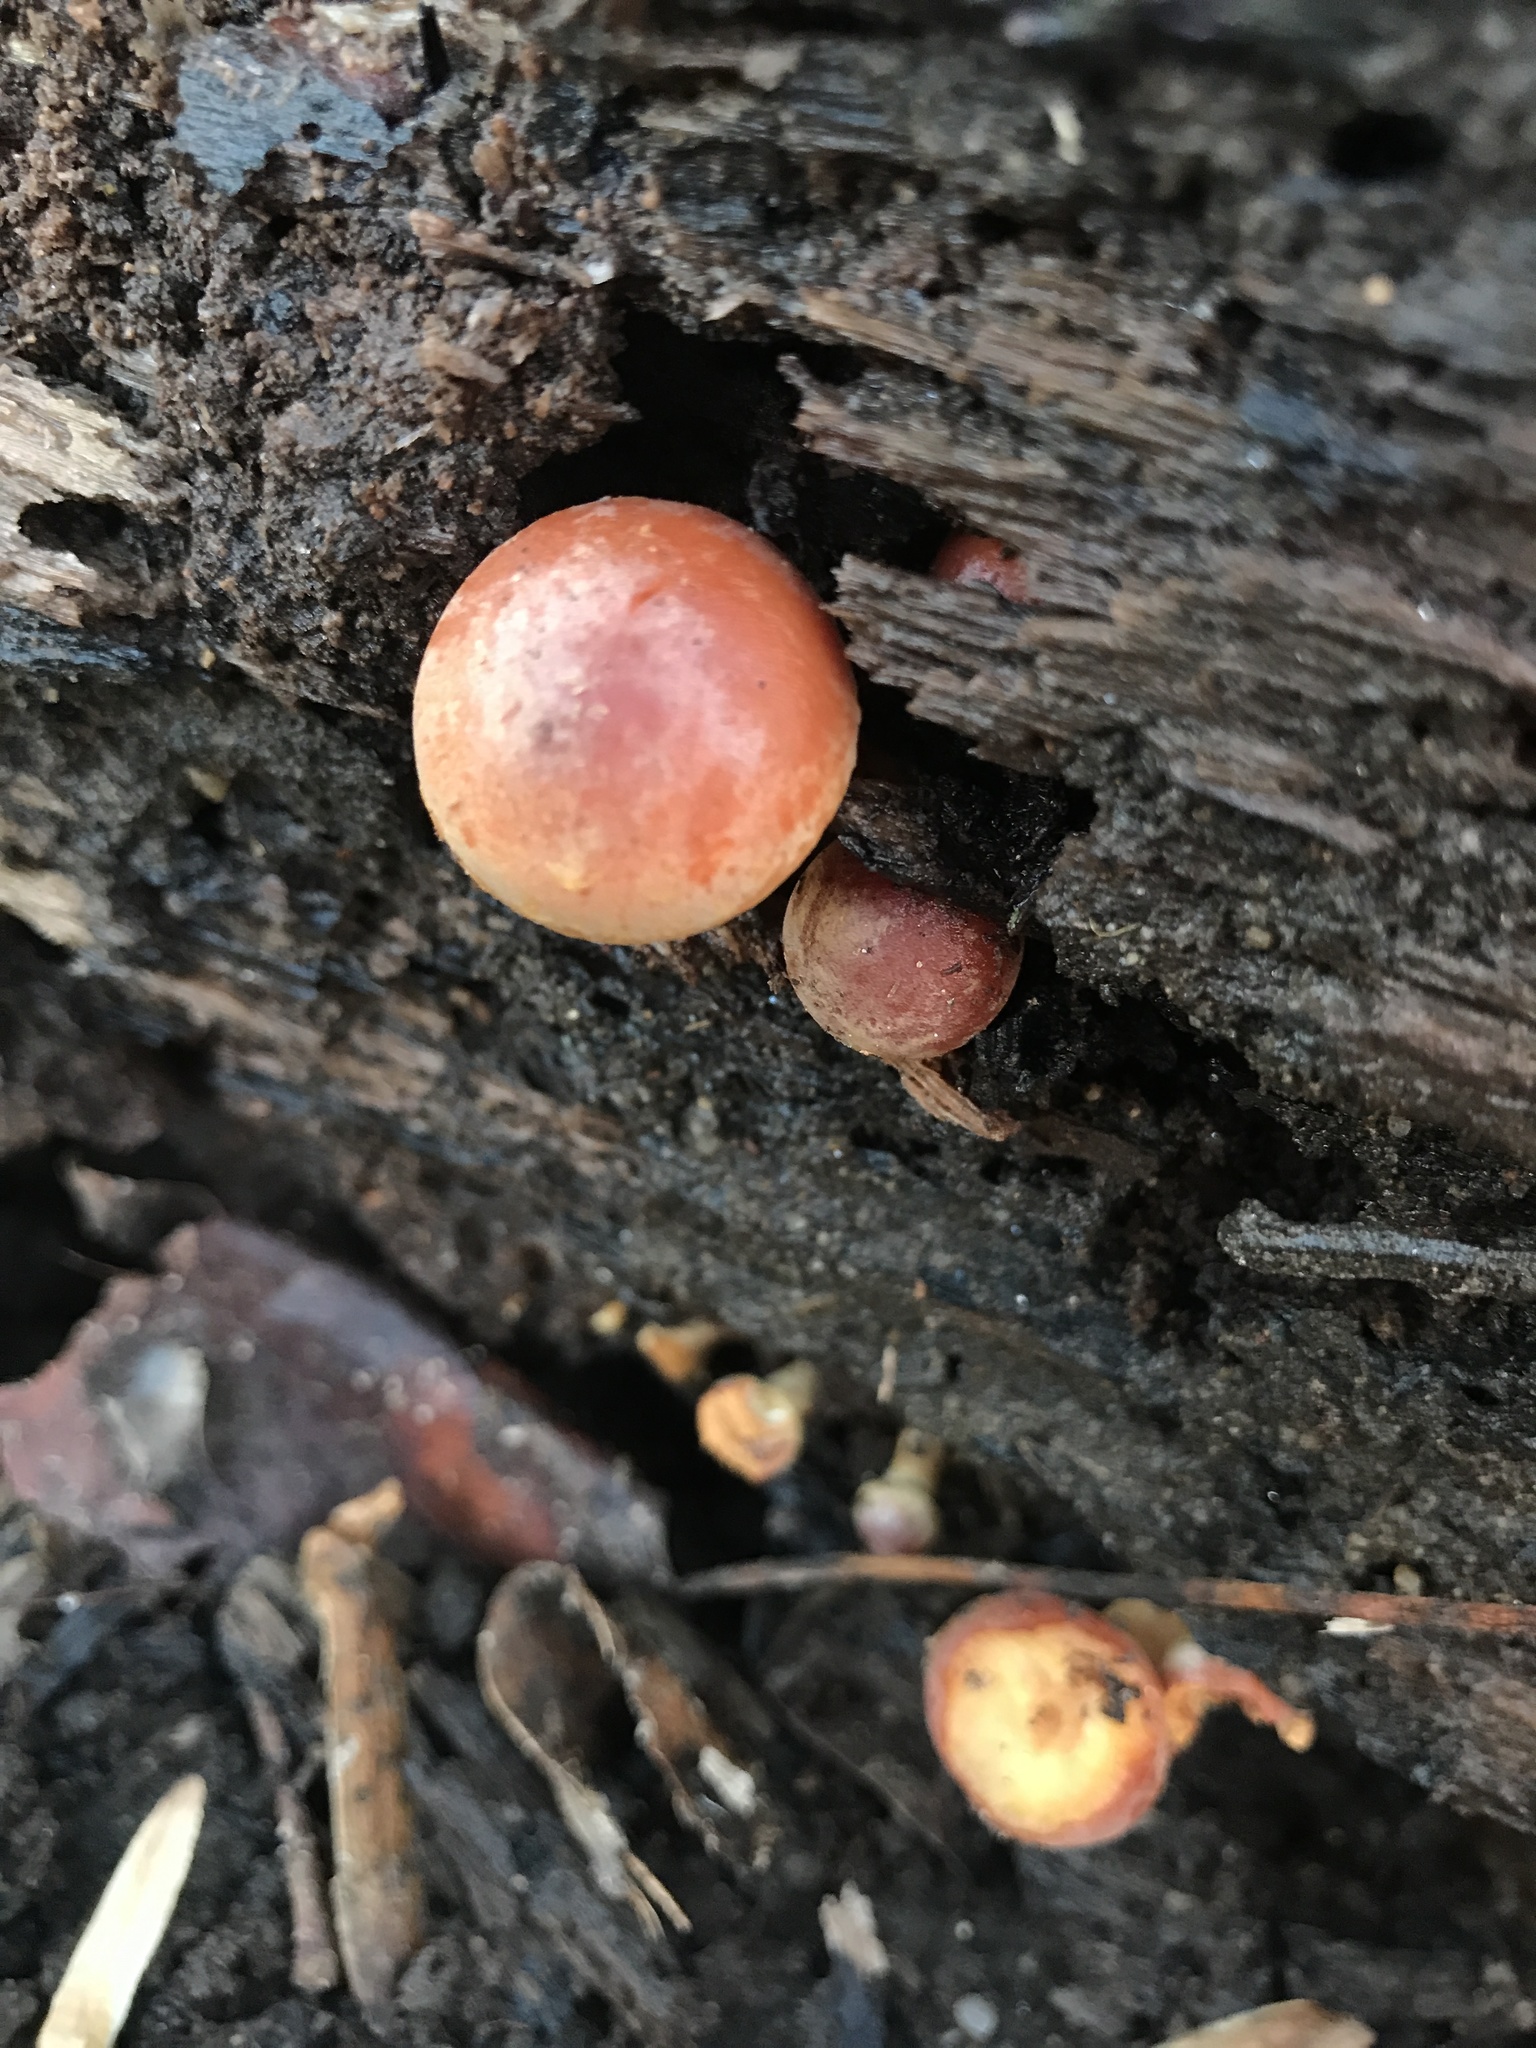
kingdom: Fungi
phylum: Basidiomycota
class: Agaricomycetes
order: Agaricales
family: Strophariaceae
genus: Hypholoma
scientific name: Hypholoma lateritium
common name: Brick caps
